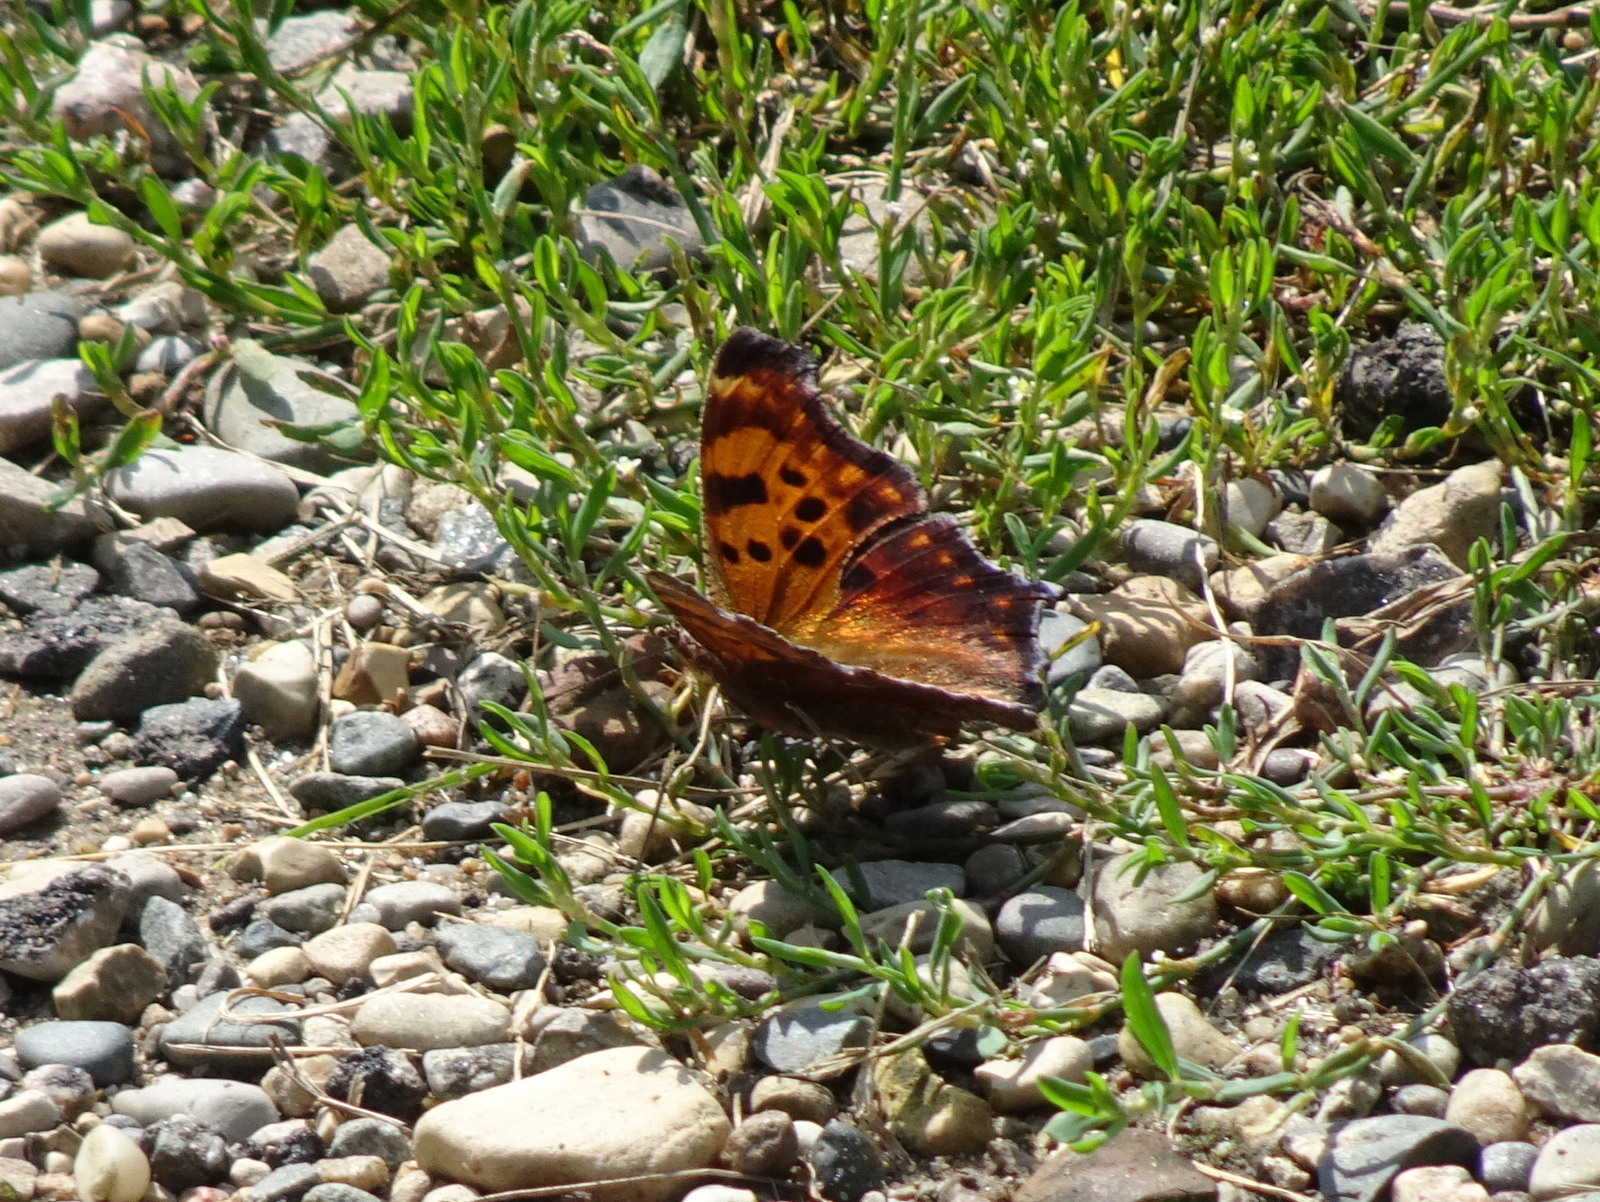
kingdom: Animalia
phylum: Arthropoda
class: Insecta
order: Lepidoptera
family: Nymphalidae
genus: Polygonia
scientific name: Polygonia comma
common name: Eastern comma
